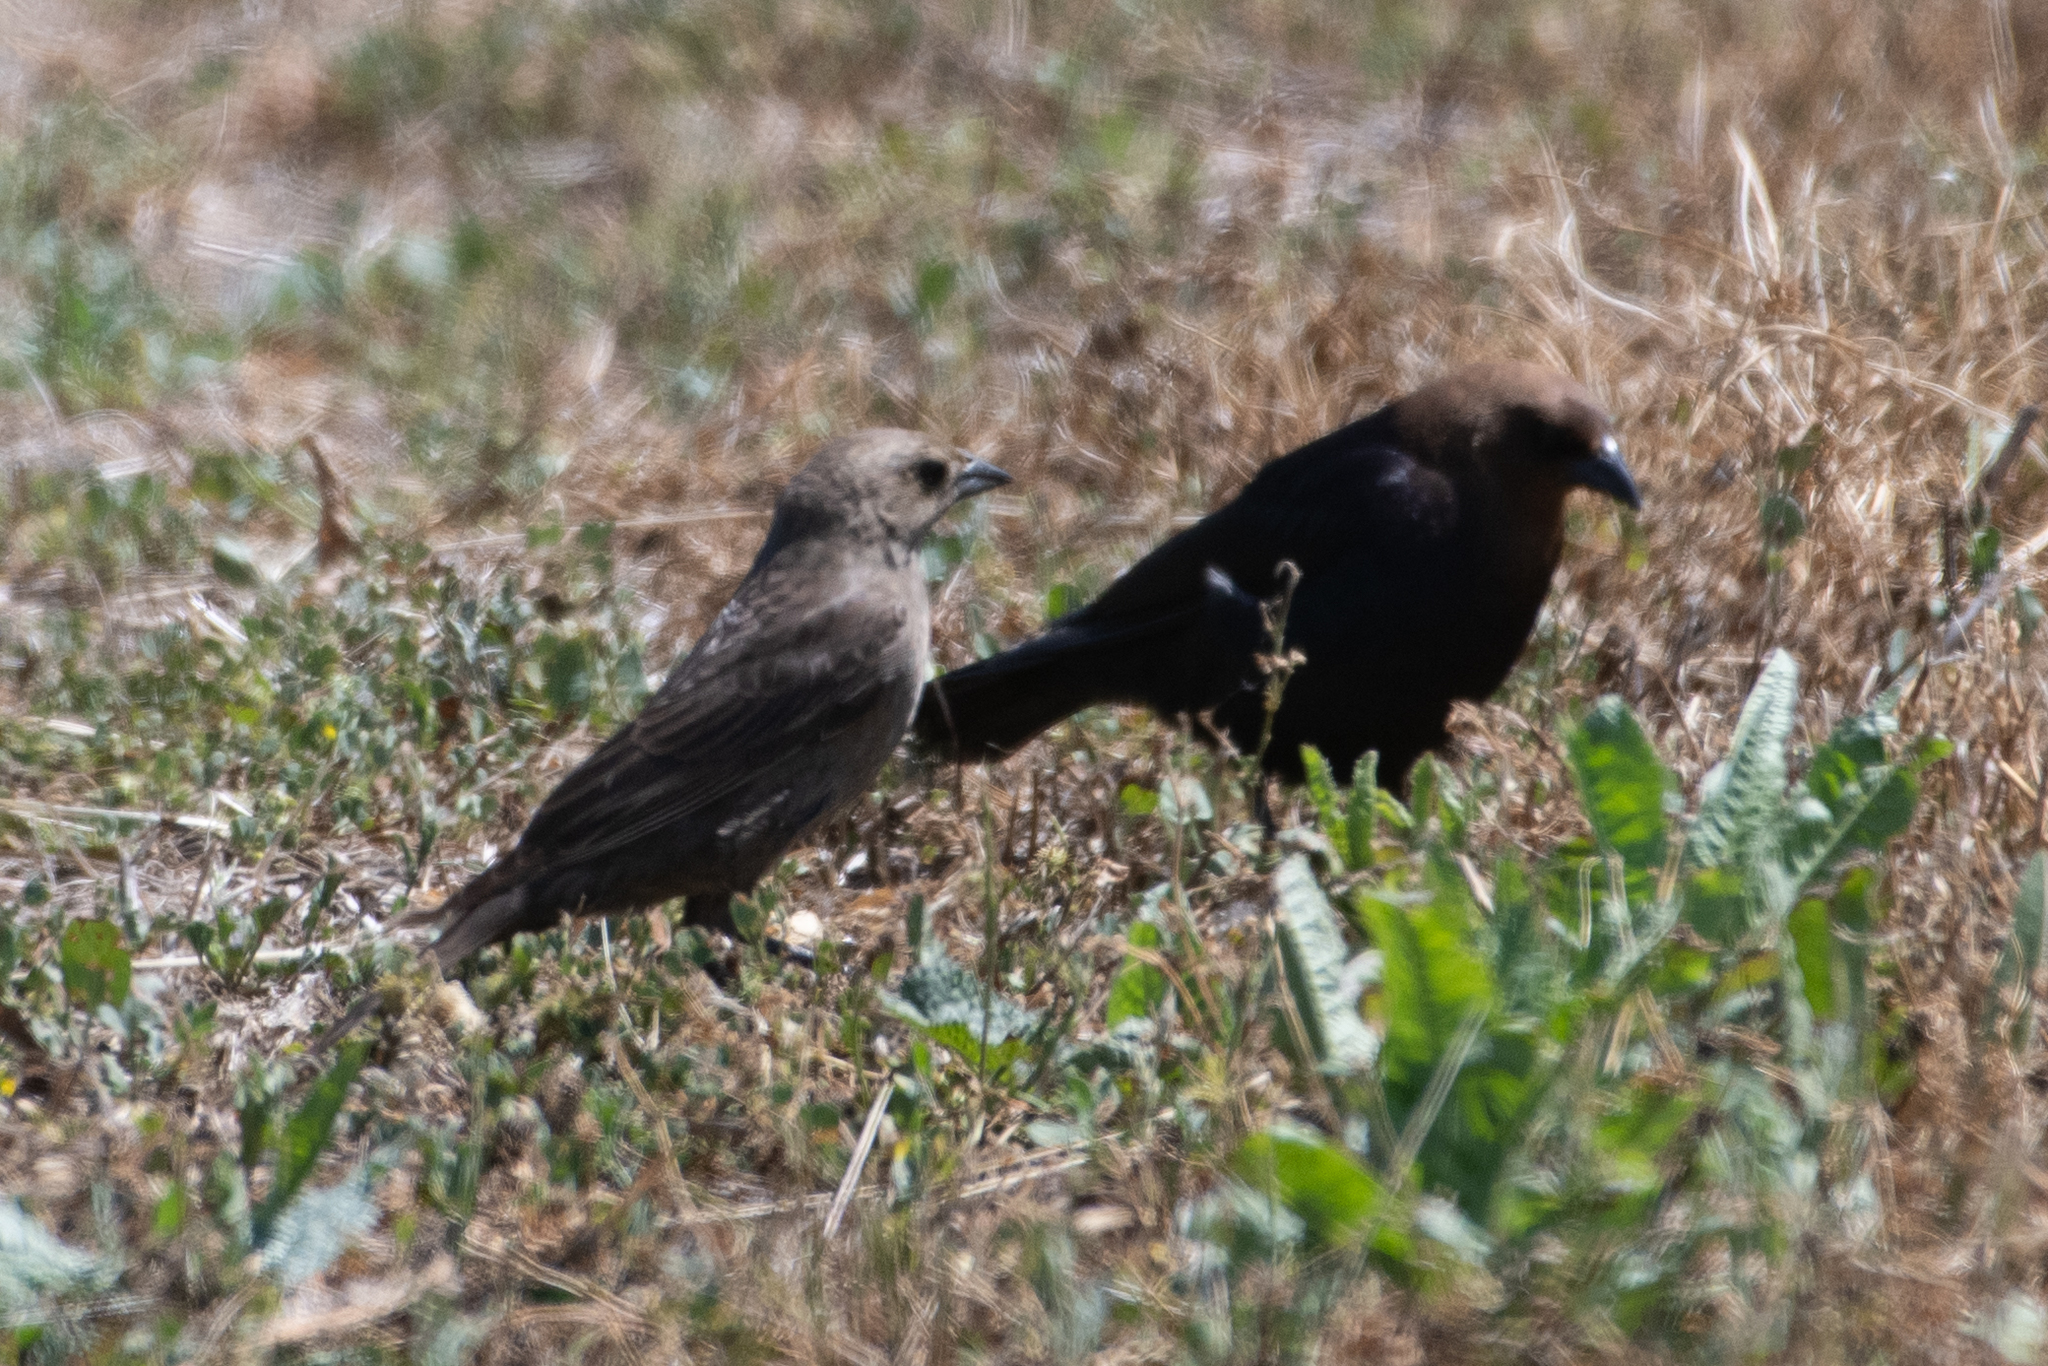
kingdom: Animalia
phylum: Chordata
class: Aves
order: Passeriformes
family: Icteridae
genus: Molothrus
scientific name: Molothrus ater
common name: Brown-headed cowbird
